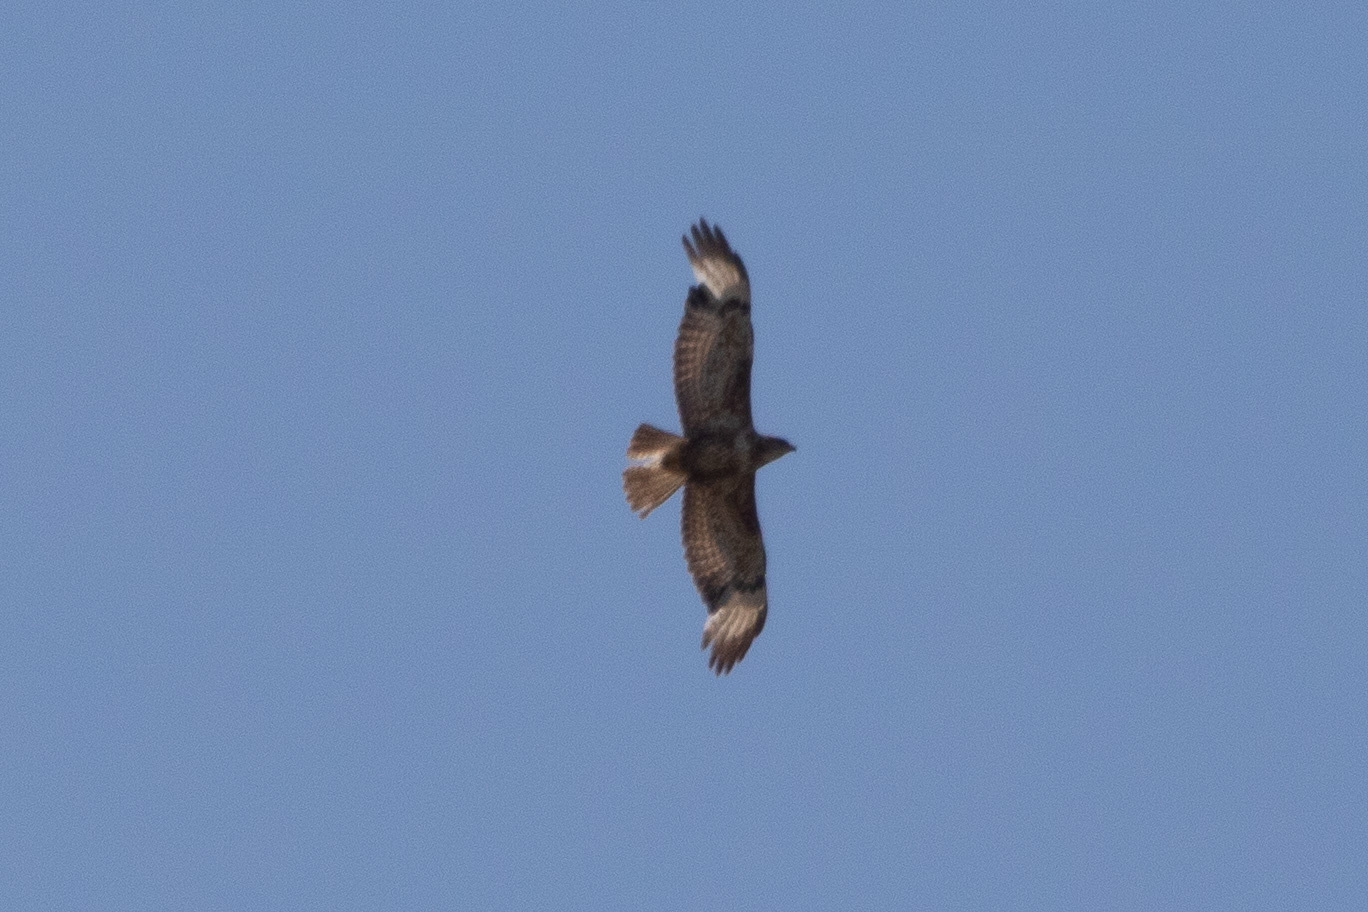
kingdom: Animalia
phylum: Chordata
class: Aves
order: Accipitriformes
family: Accipitridae
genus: Buteo
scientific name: Buteo buteo
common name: Common buzzard
